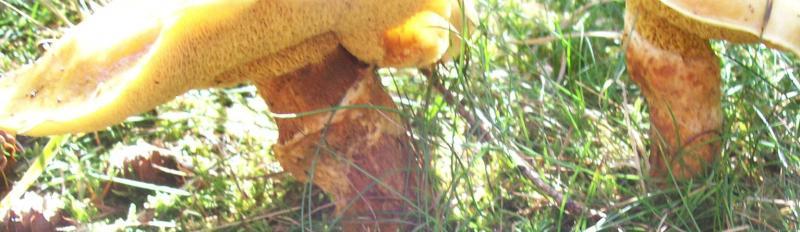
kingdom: Fungi
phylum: Basidiomycota
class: Agaricomycetes
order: Boletales
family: Suillaceae
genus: Suillus
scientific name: Suillus grevillei
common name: Larch bolete
